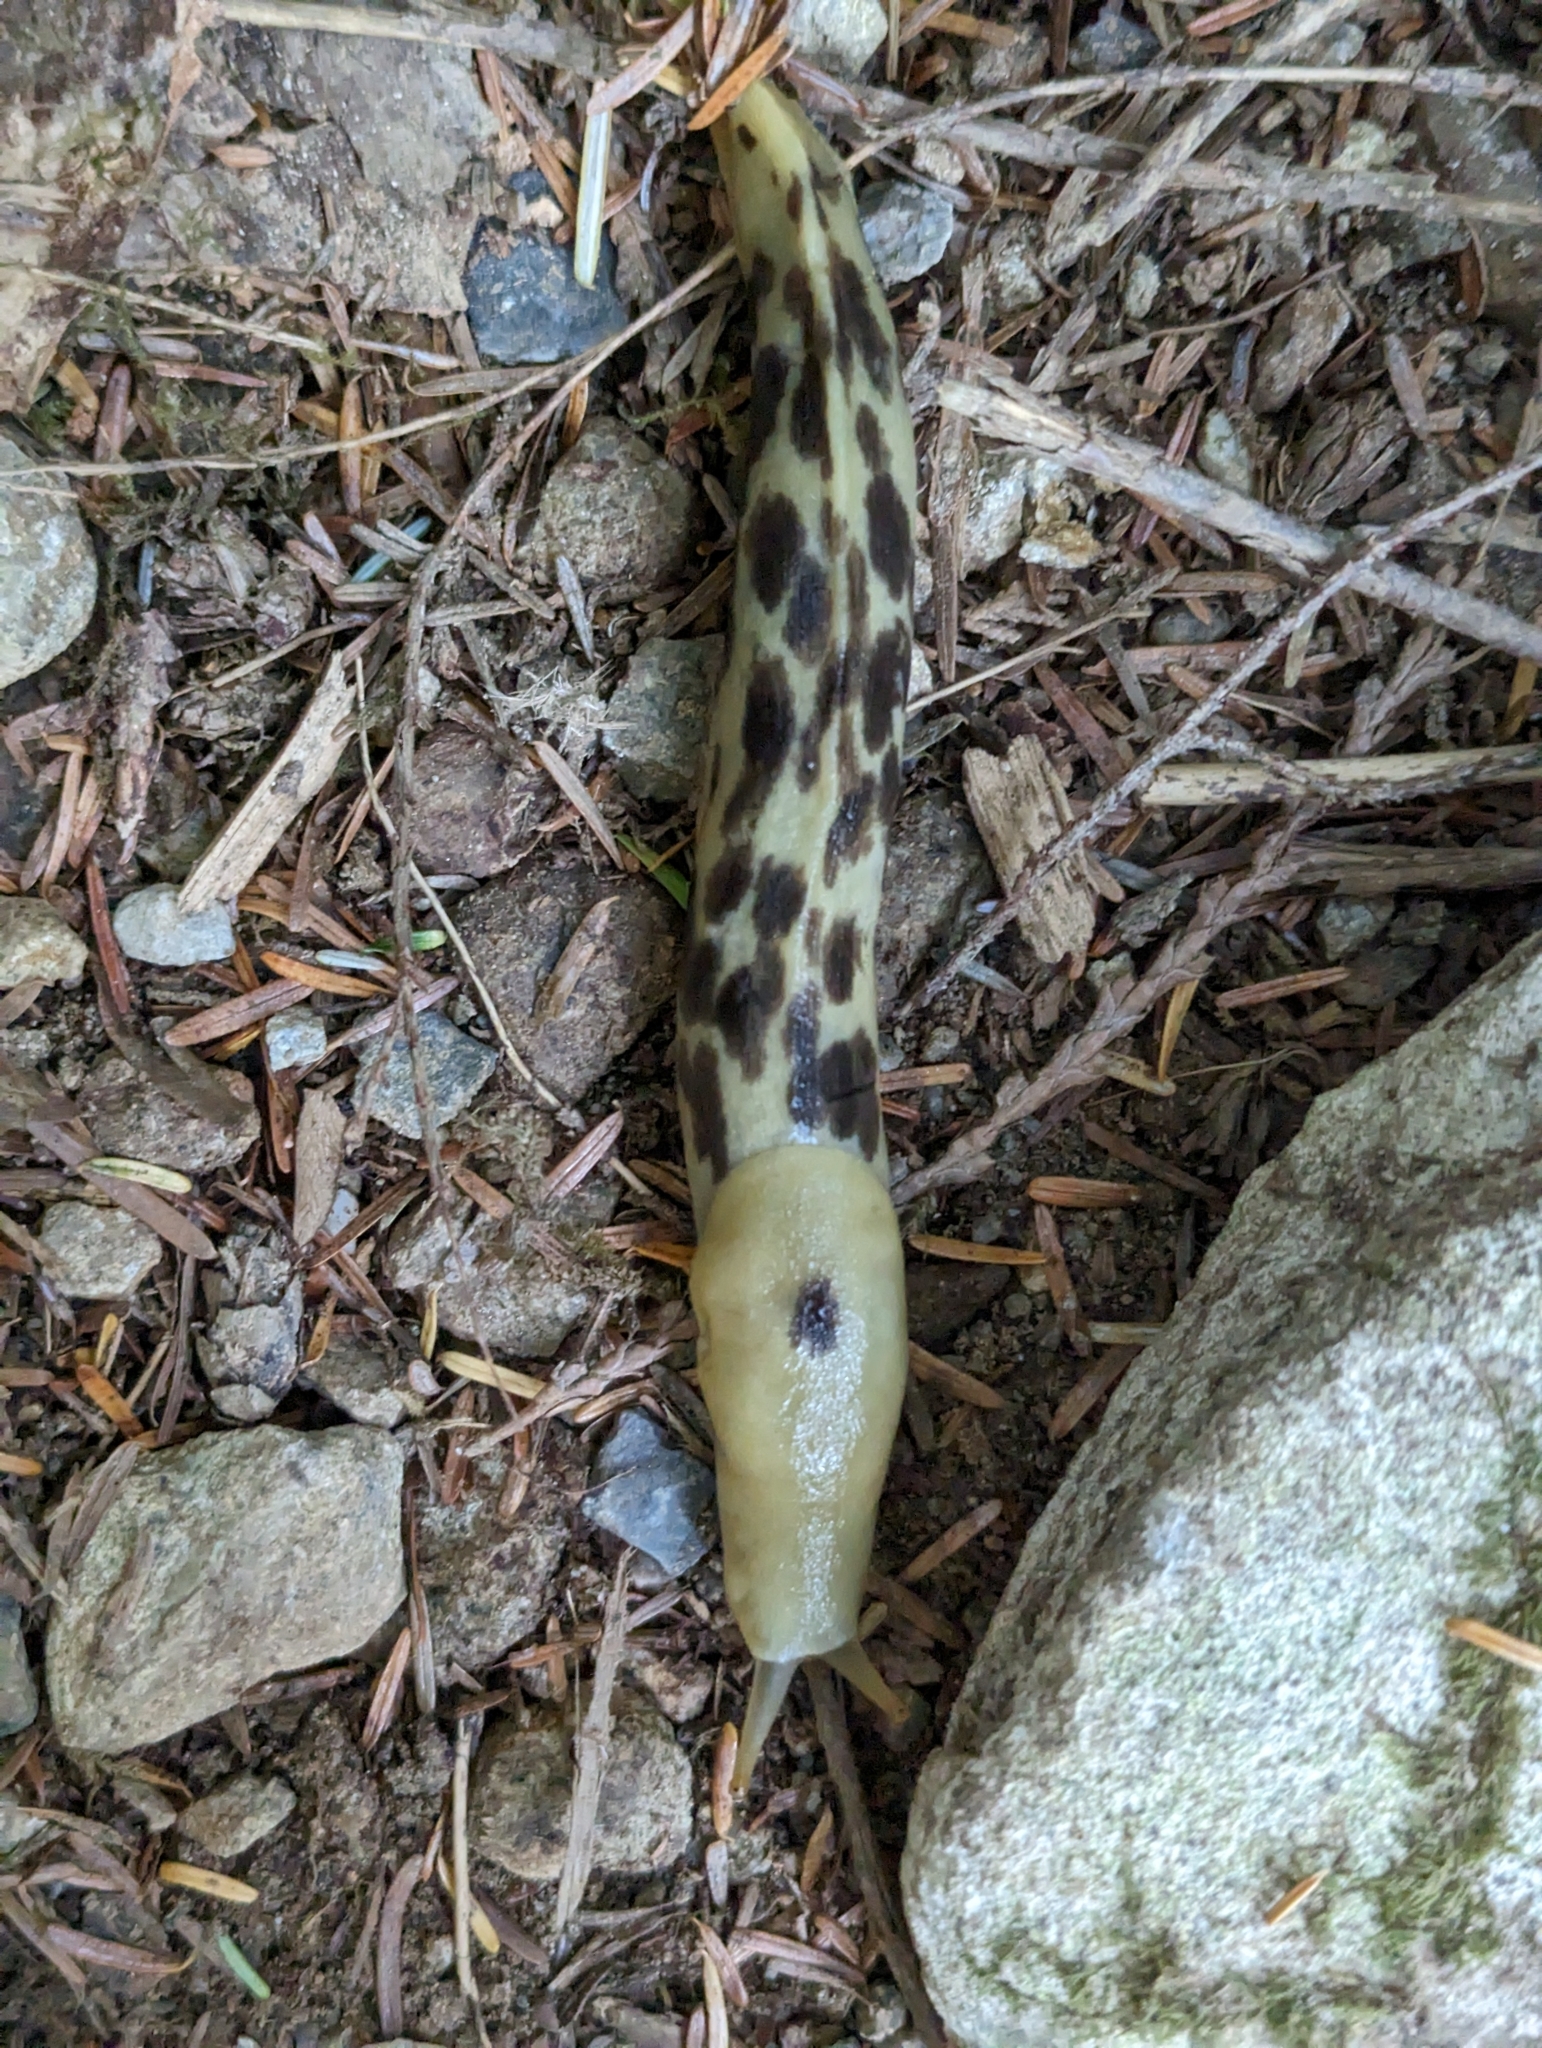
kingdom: Animalia
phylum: Mollusca
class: Gastropoda
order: Stylommatophora
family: Ariolimacidae
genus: Ariolimax
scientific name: Ariolimax columbianus
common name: Pacific banana slug
